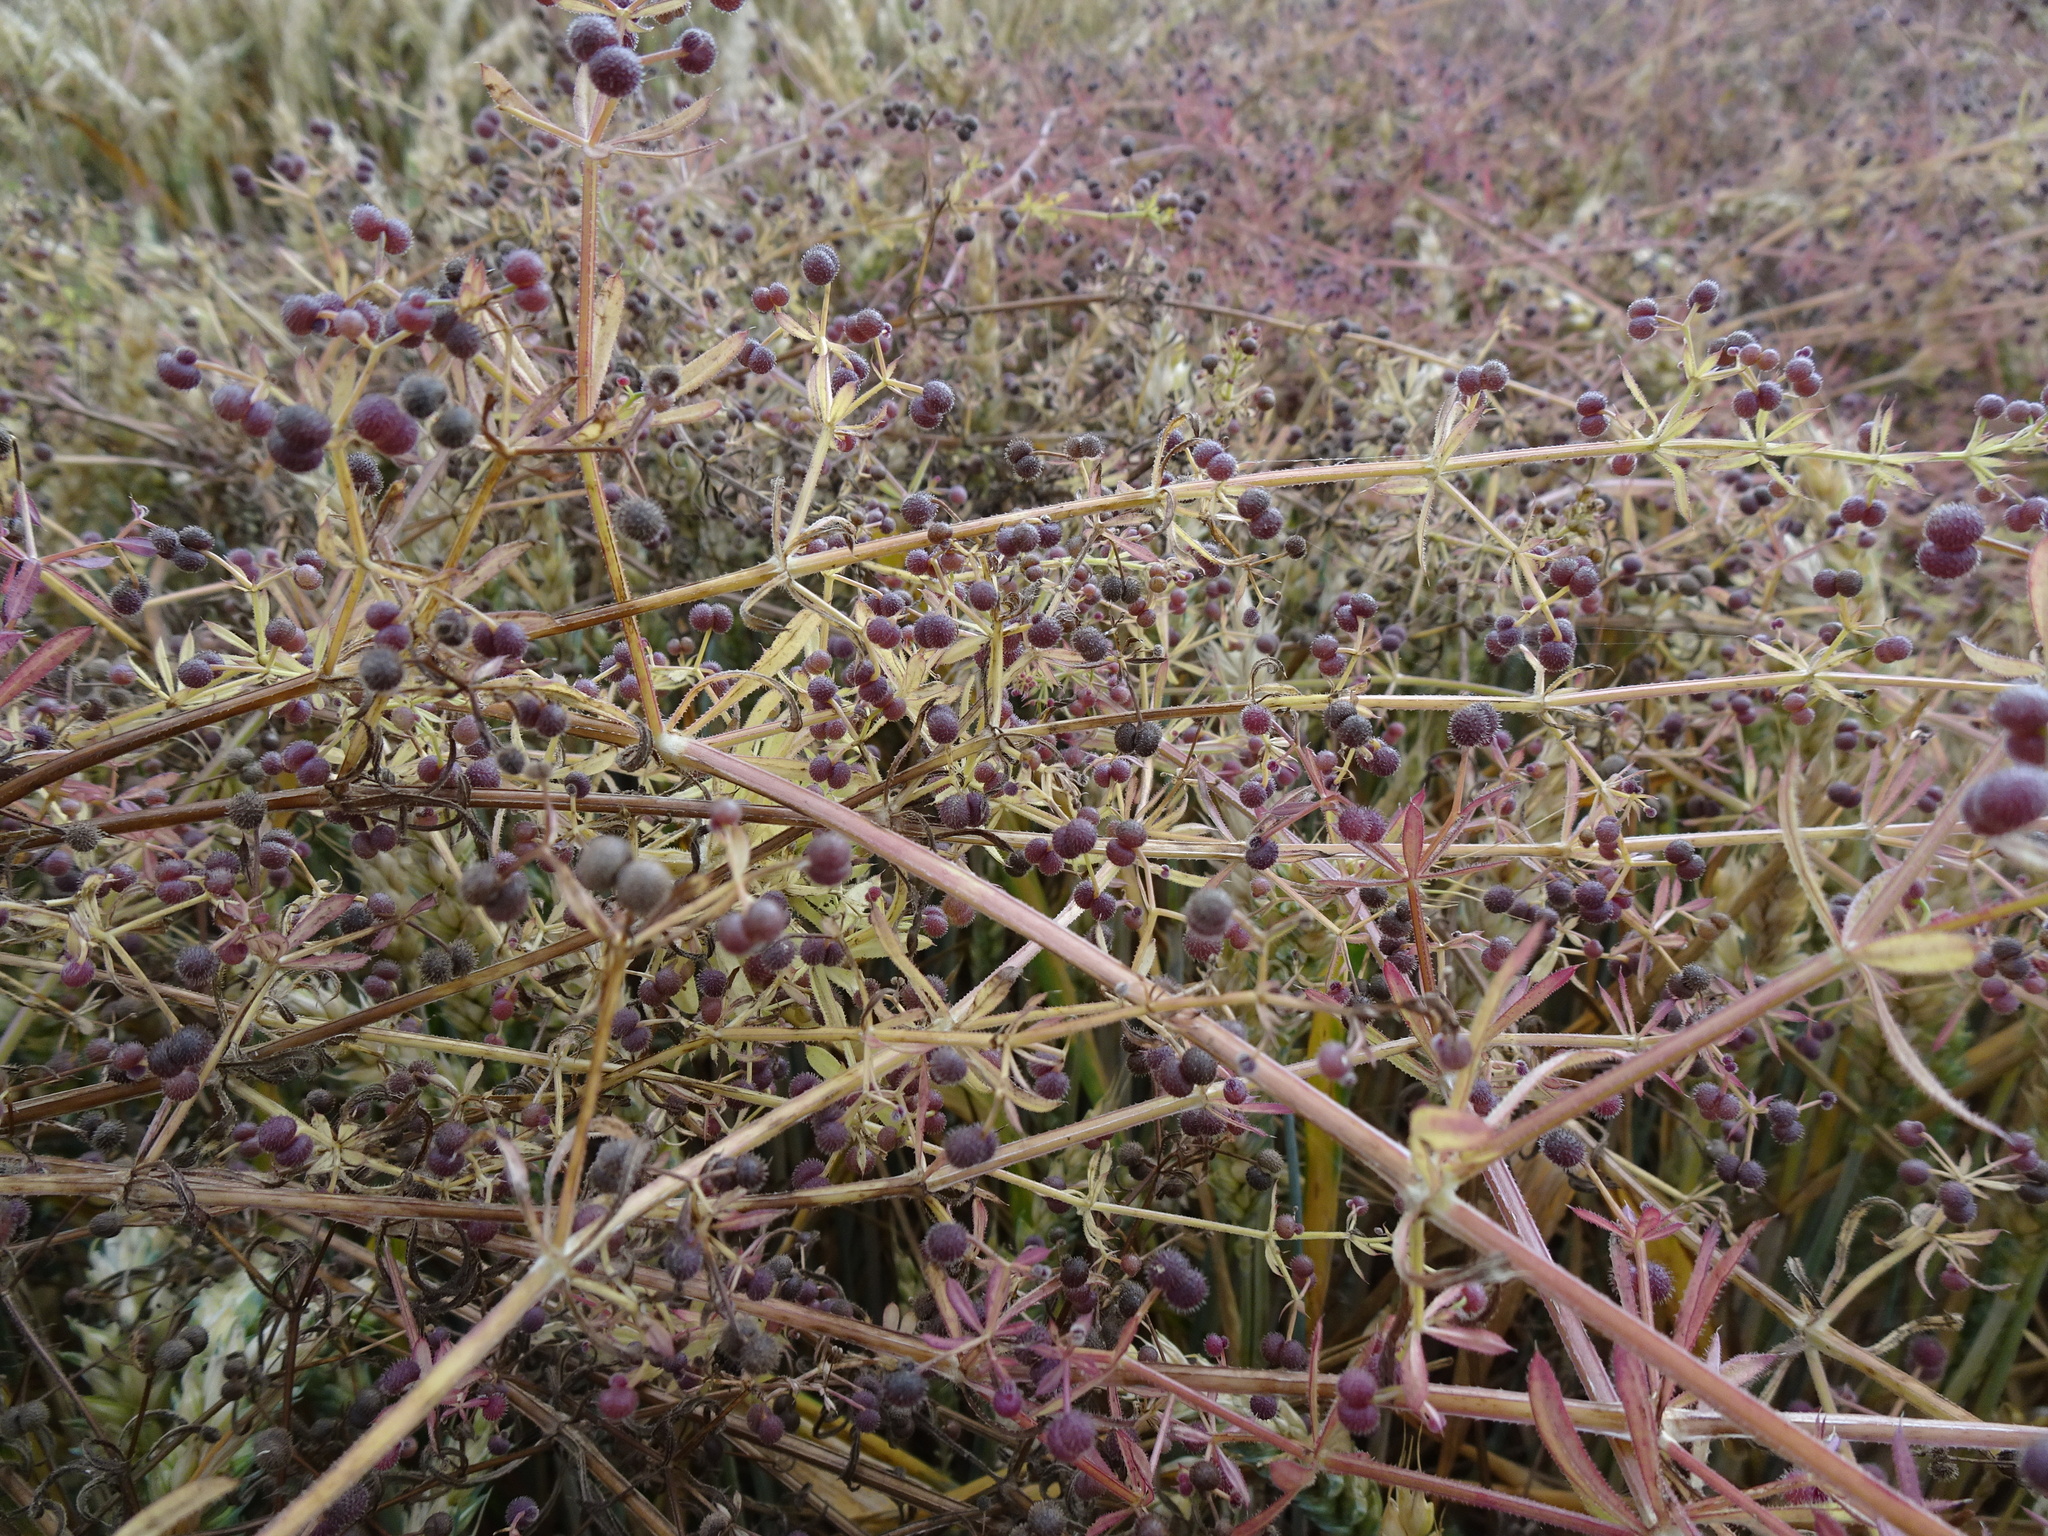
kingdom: Plantae
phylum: Tracheophyta
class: Magnoliopsida
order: Gentianales
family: Rubiaceae
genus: Galium
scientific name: Galium aparine
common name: Cleavers
